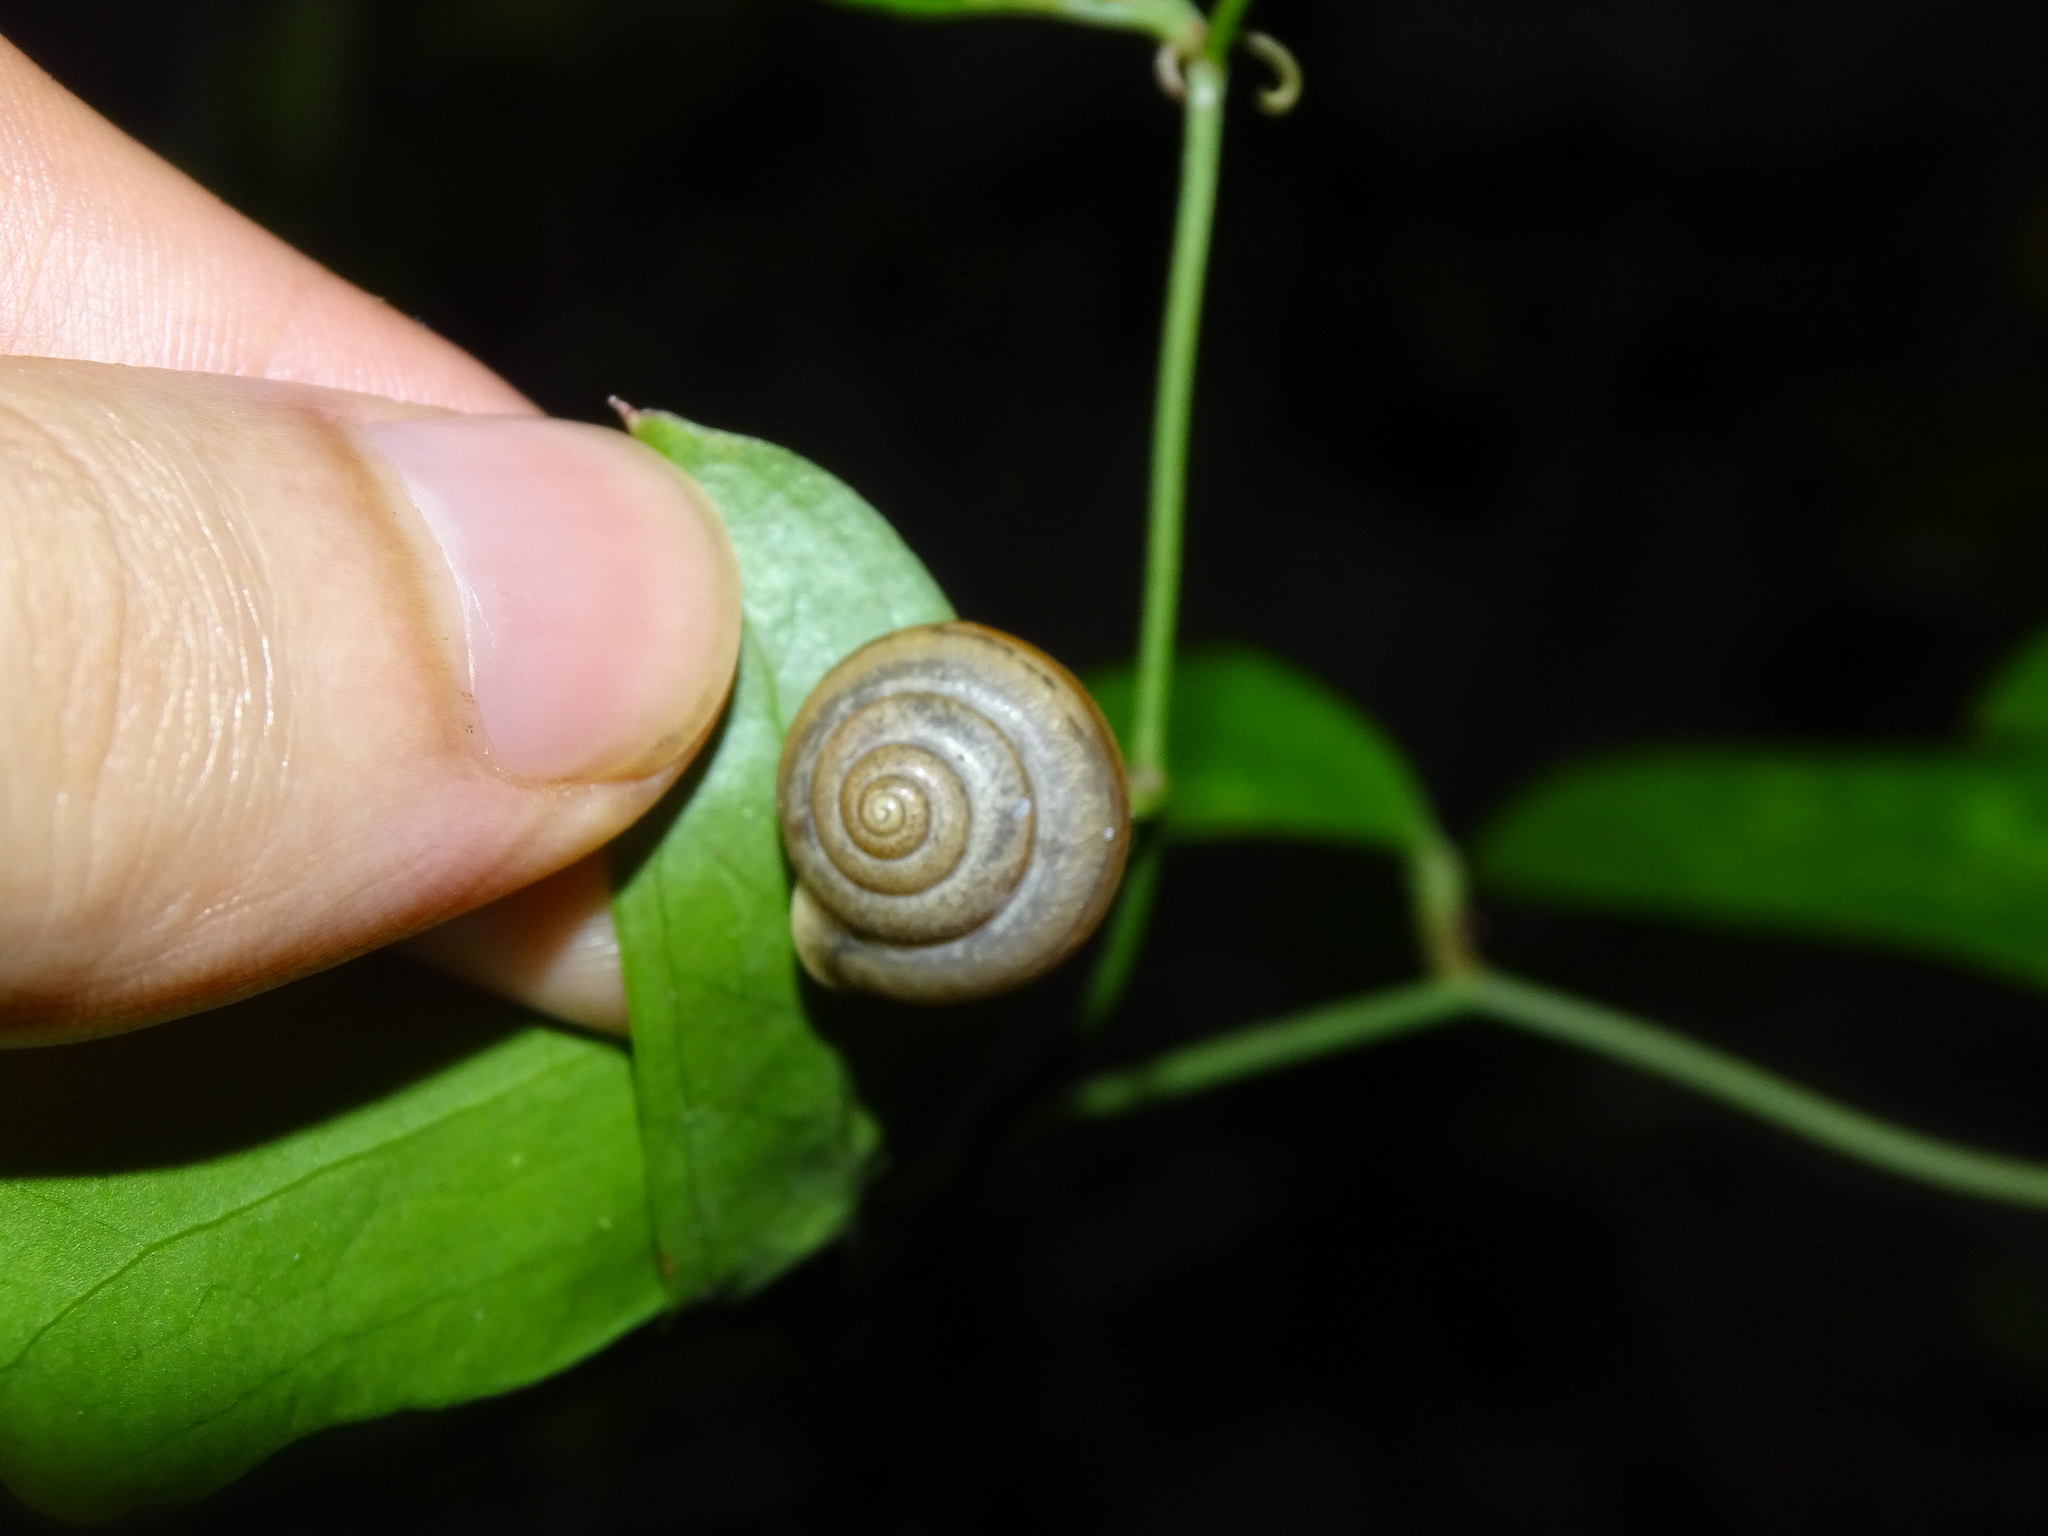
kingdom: Animalia
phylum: Mollusca
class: Gastropoda
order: Stylommatophora
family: Camaenidae
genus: Bradybaena
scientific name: Bradybaena similaris
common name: Asian trampsnail
